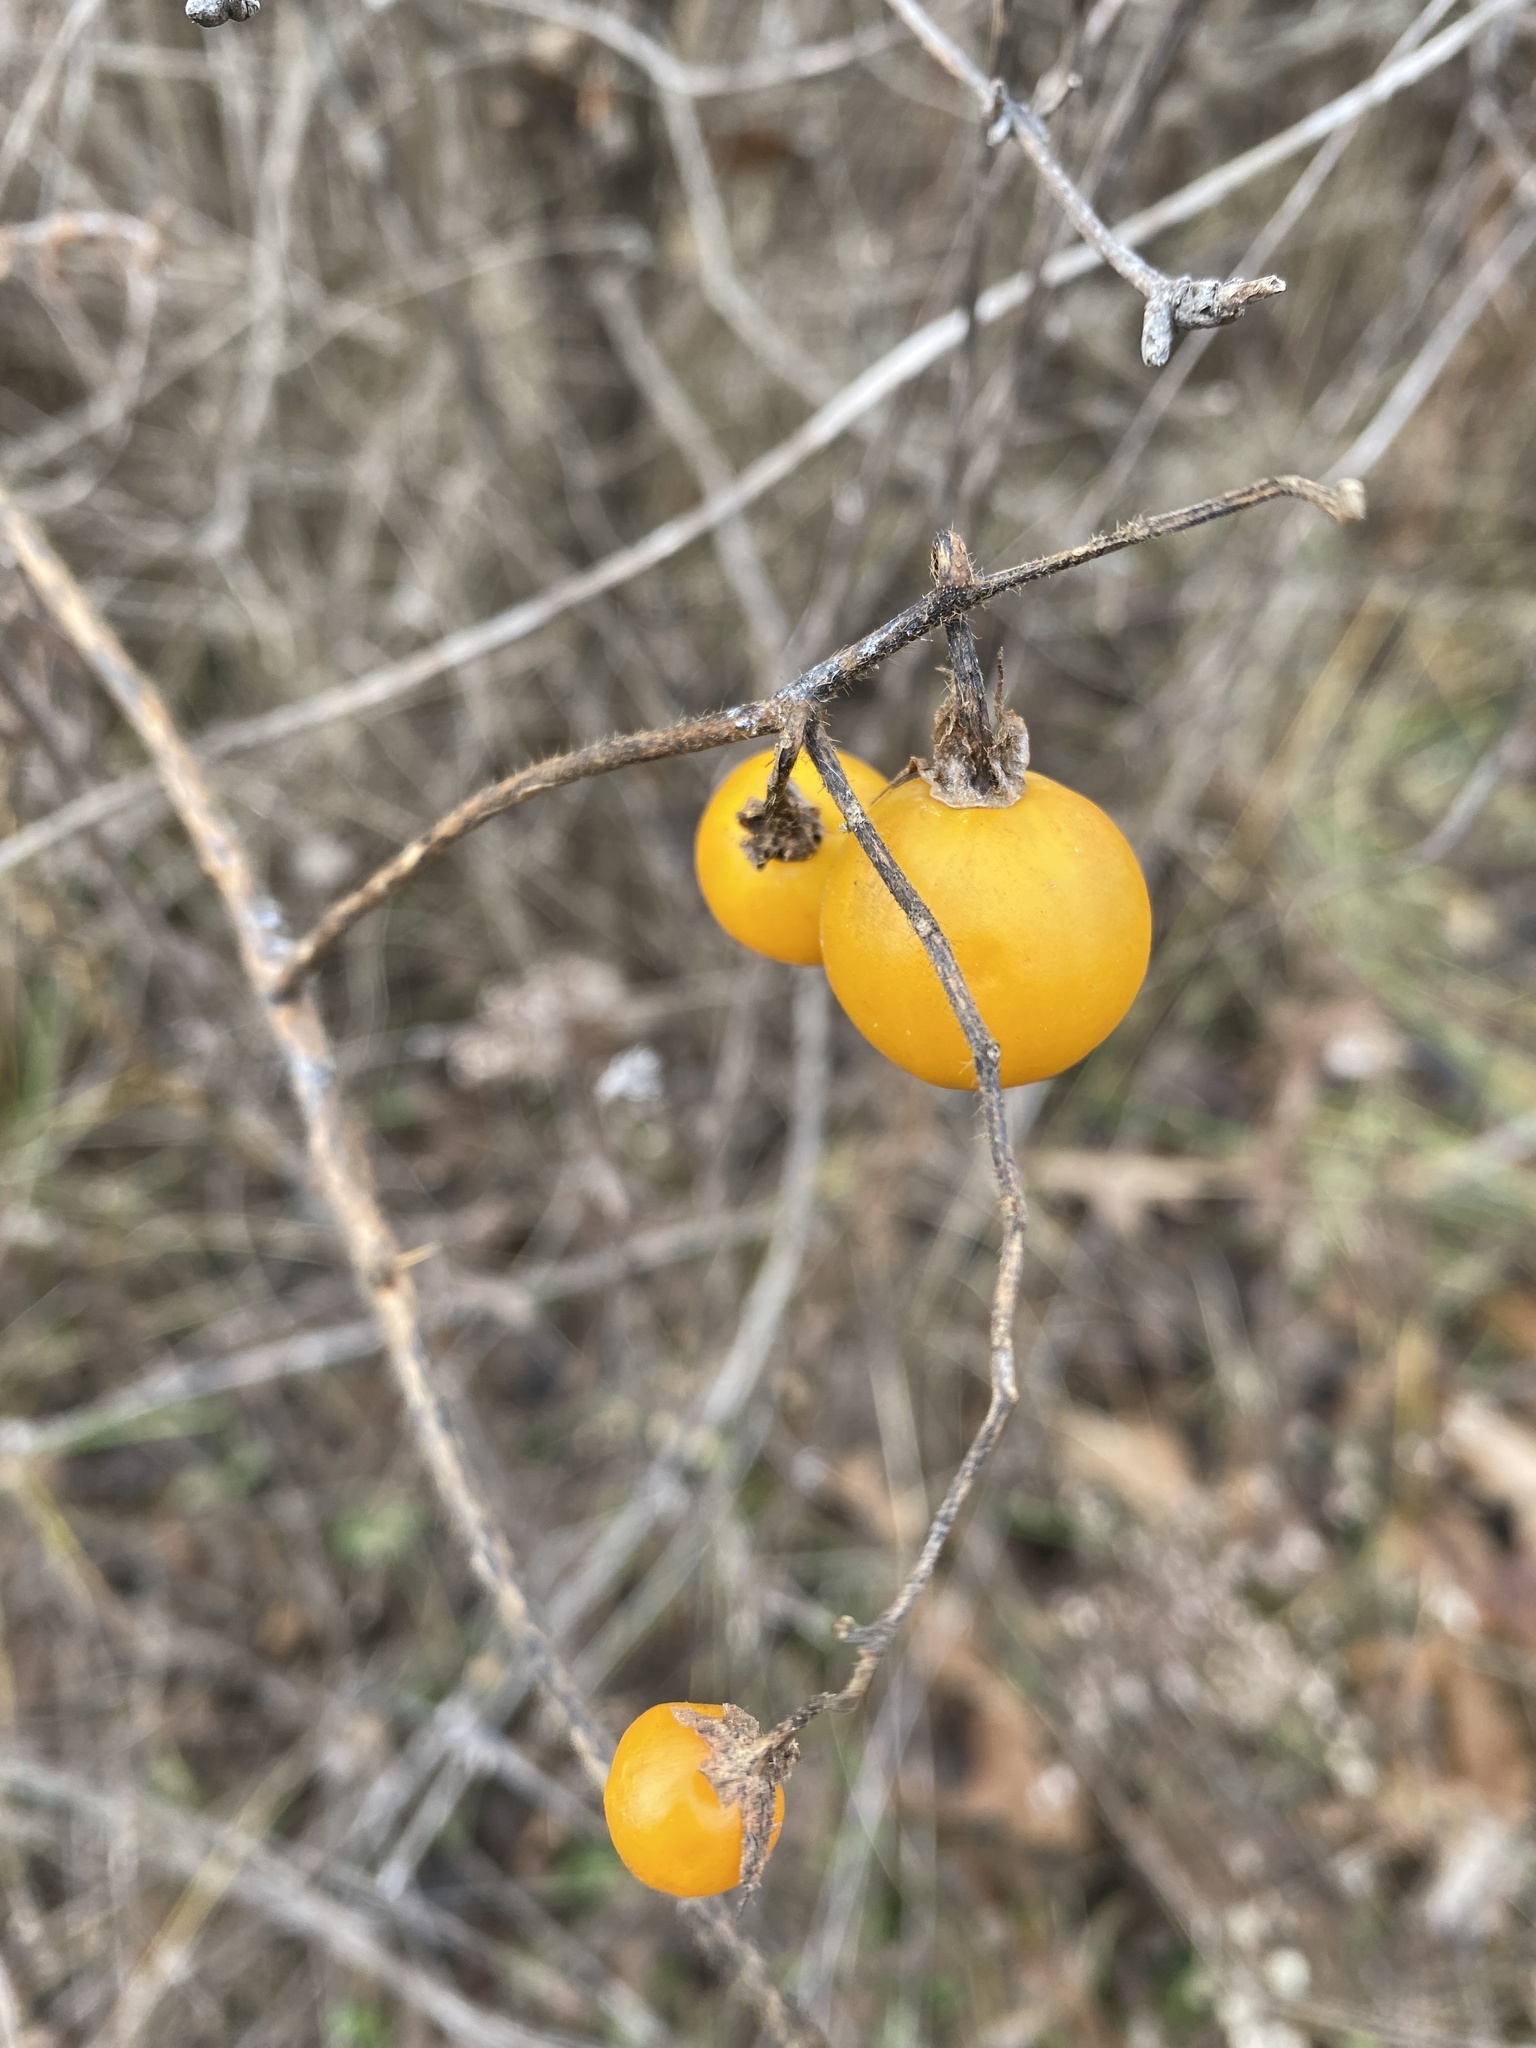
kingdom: Plantae
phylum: Tracheophyta
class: Magnoliopsida
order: Solanales
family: Solanaceae
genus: Solanum
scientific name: Solanum carolinense
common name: Horse-nettle
